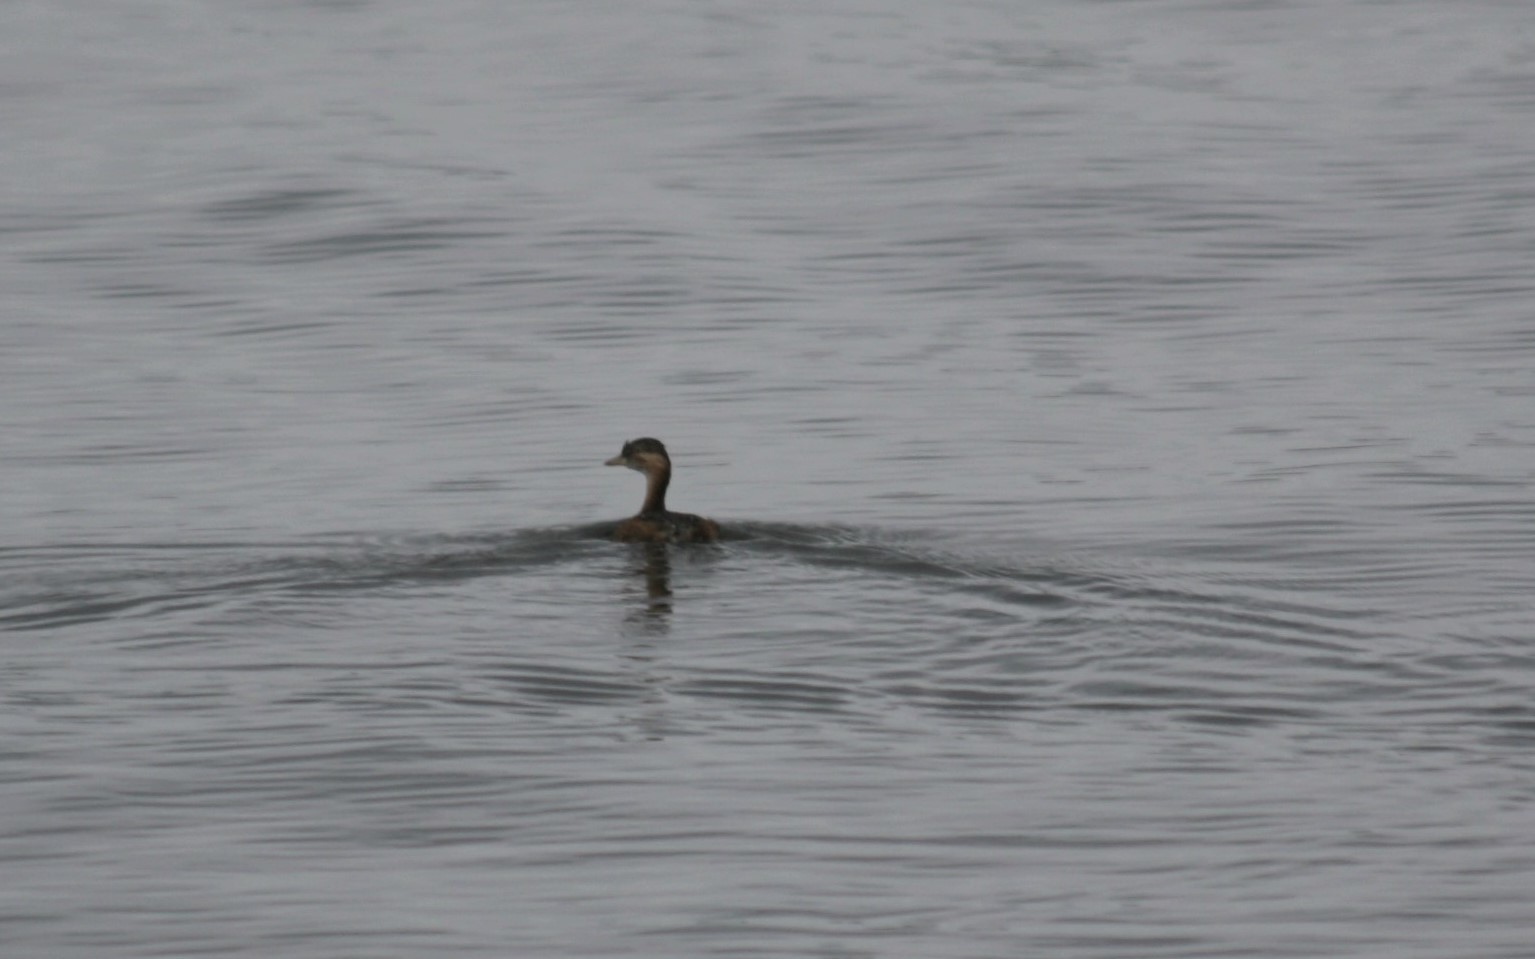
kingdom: Animalia
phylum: Chordata
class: Aves
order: Podicipediformes
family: Podicipedidae
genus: Tachybaptus
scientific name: Tachybaptus ruficollis
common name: Little grebe
